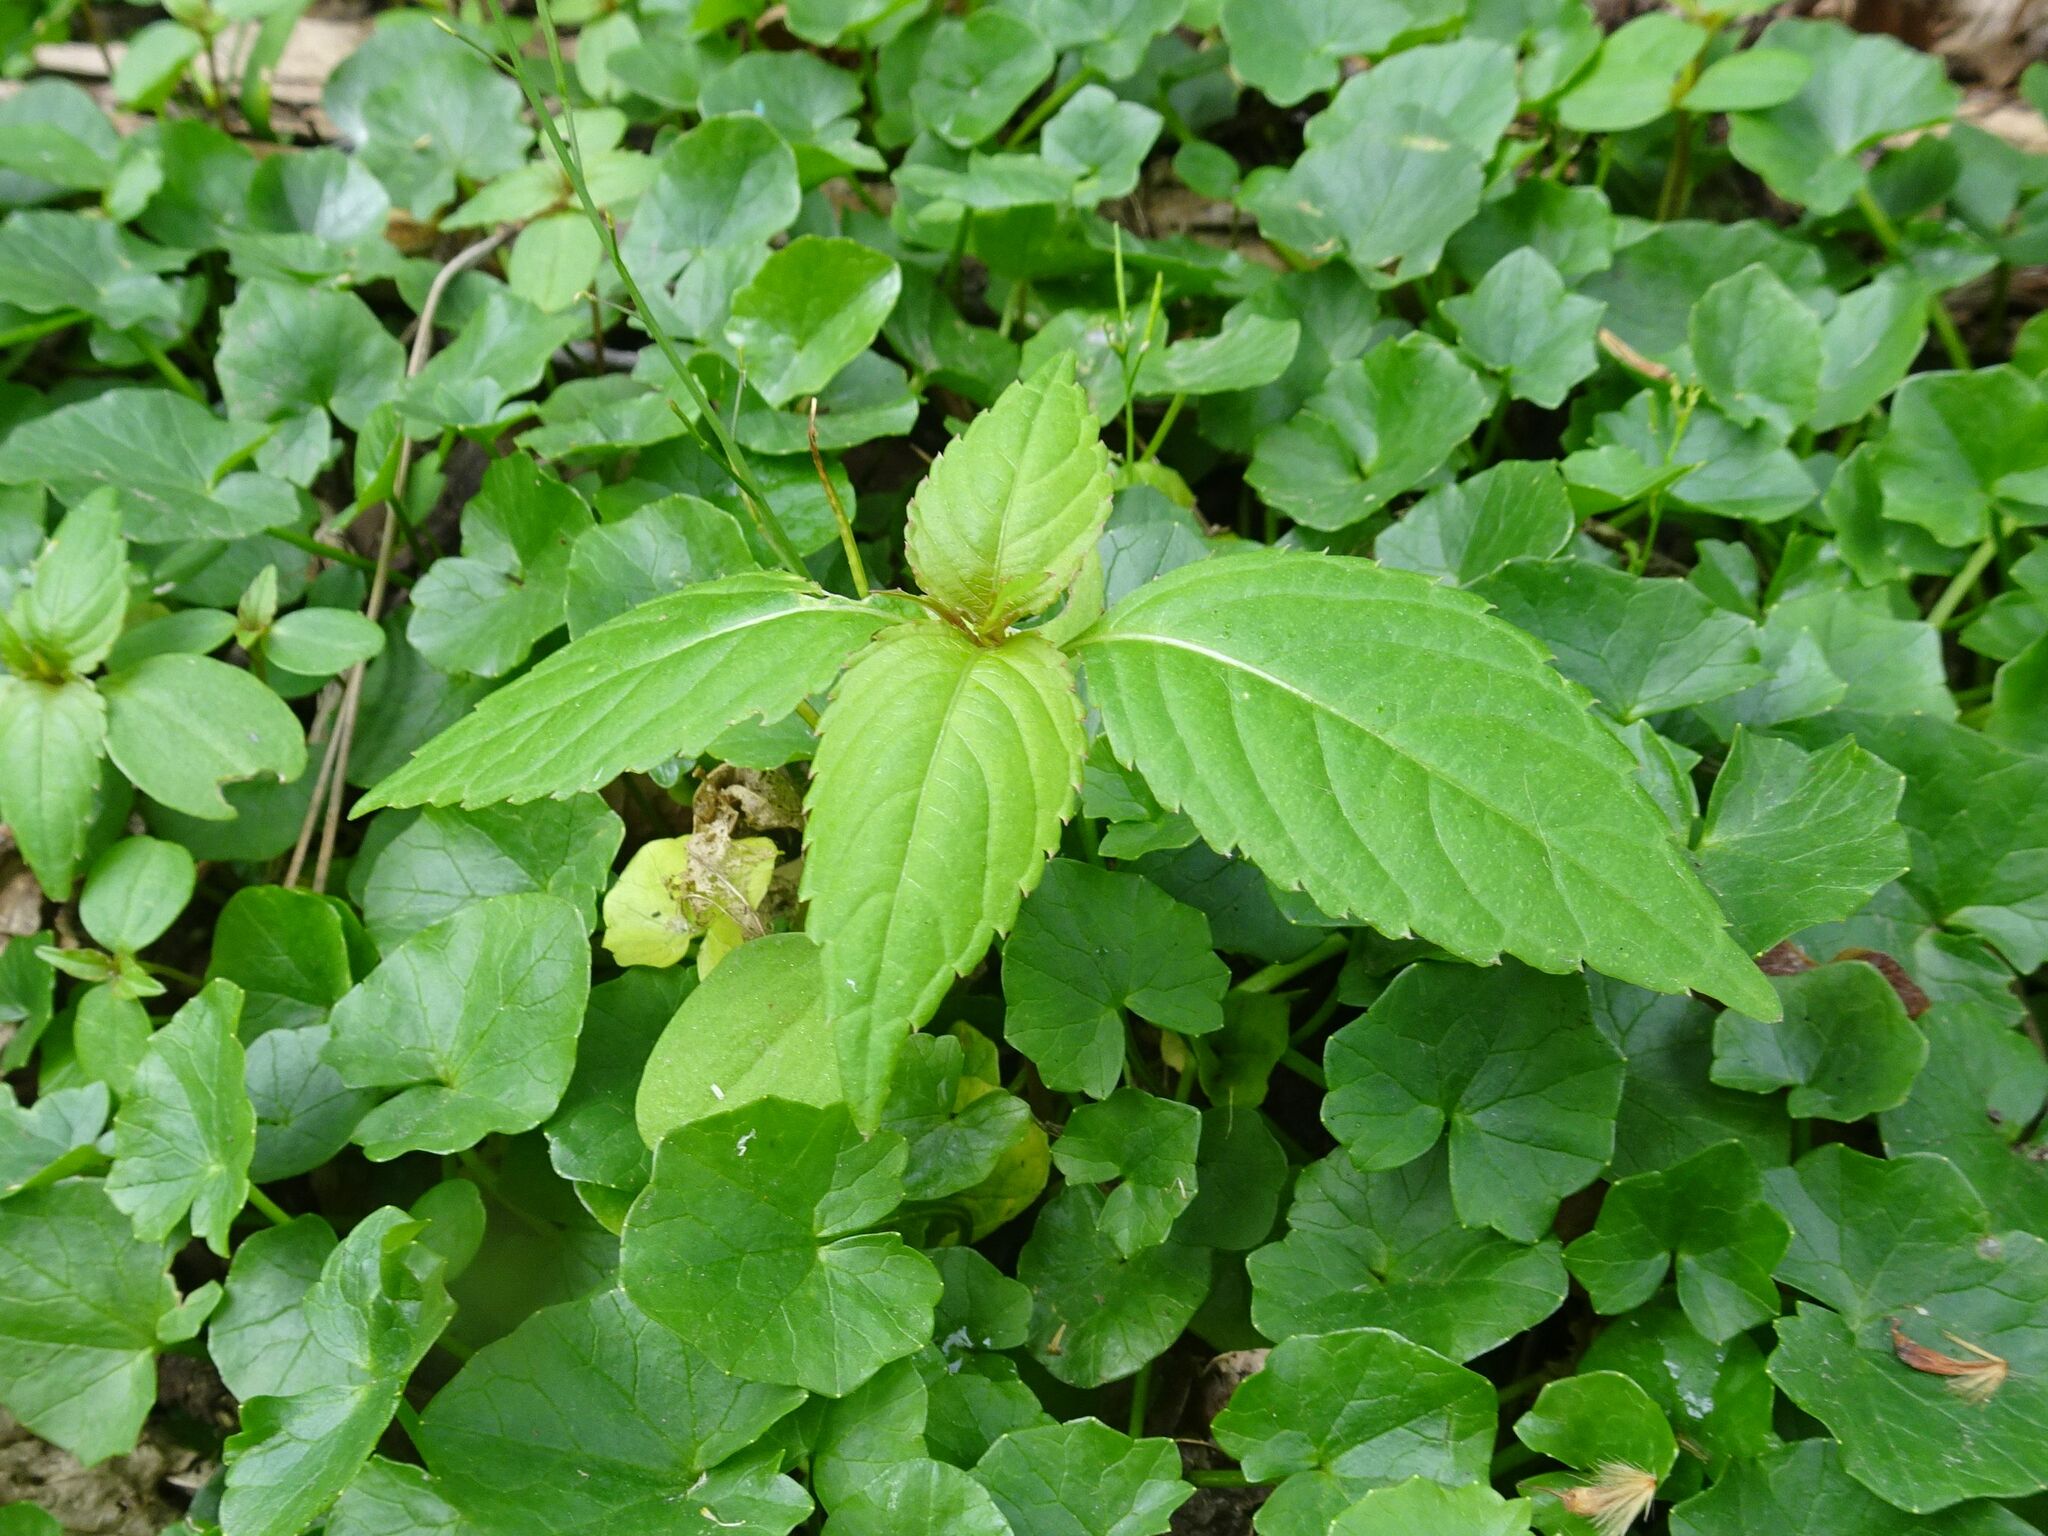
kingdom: Plantae
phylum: Tracheophyta
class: Magnoliopsida
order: Ericales
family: Balsaminaceae
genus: Impatiens
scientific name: Impatiens parviflora
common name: Small balsam
